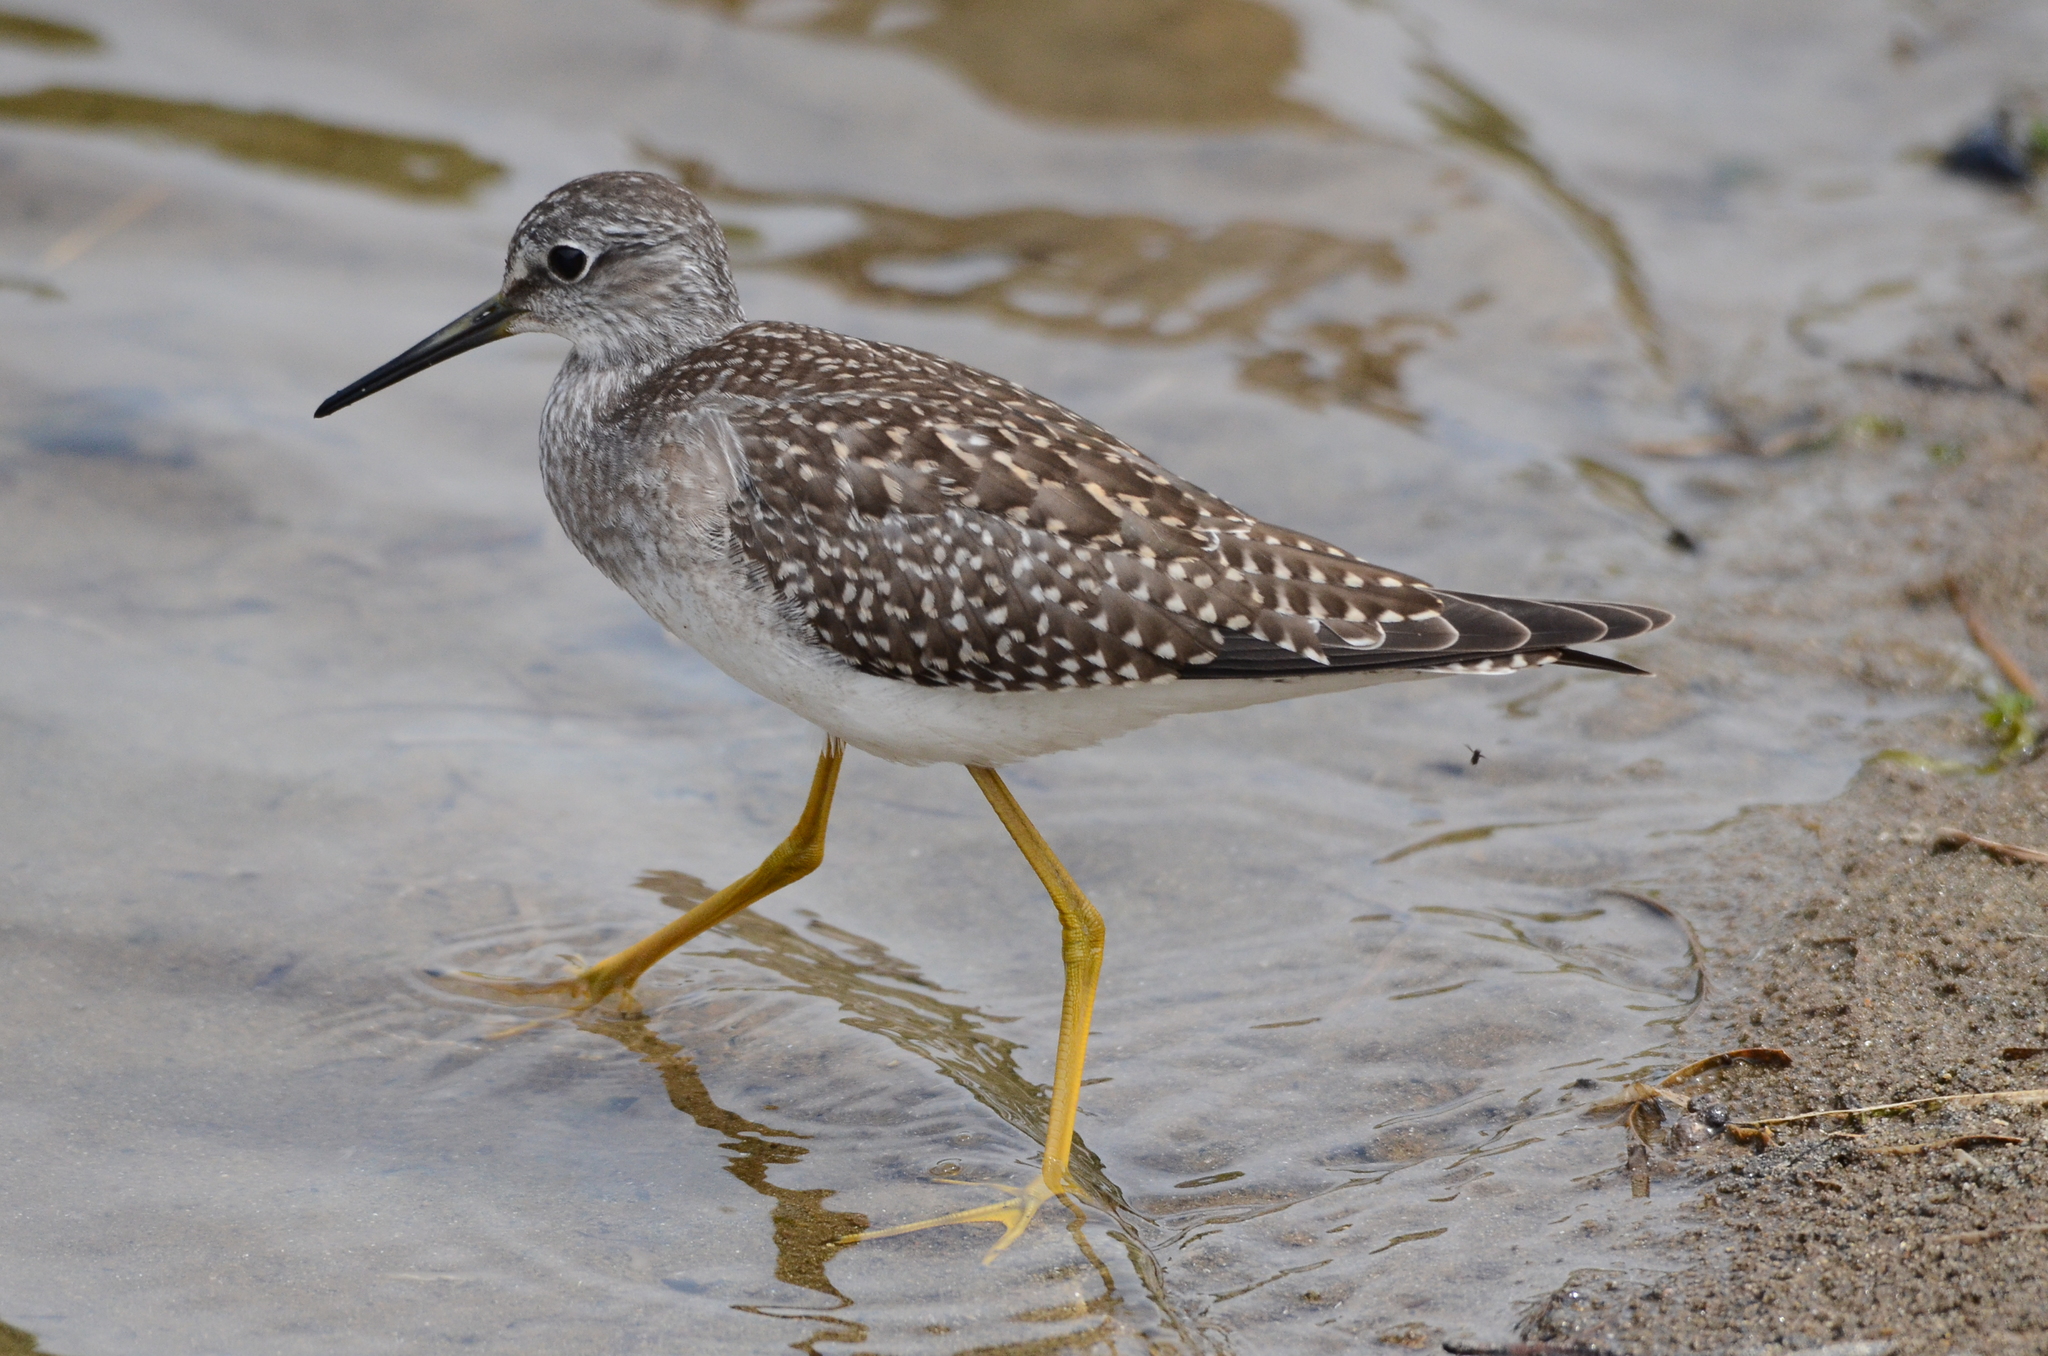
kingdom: Animalia
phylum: Chordata
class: Aves
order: Charadriiformes
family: Scolopacidae
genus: Tringa
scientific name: Tringa flavipes
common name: Lesser yellowlegs
